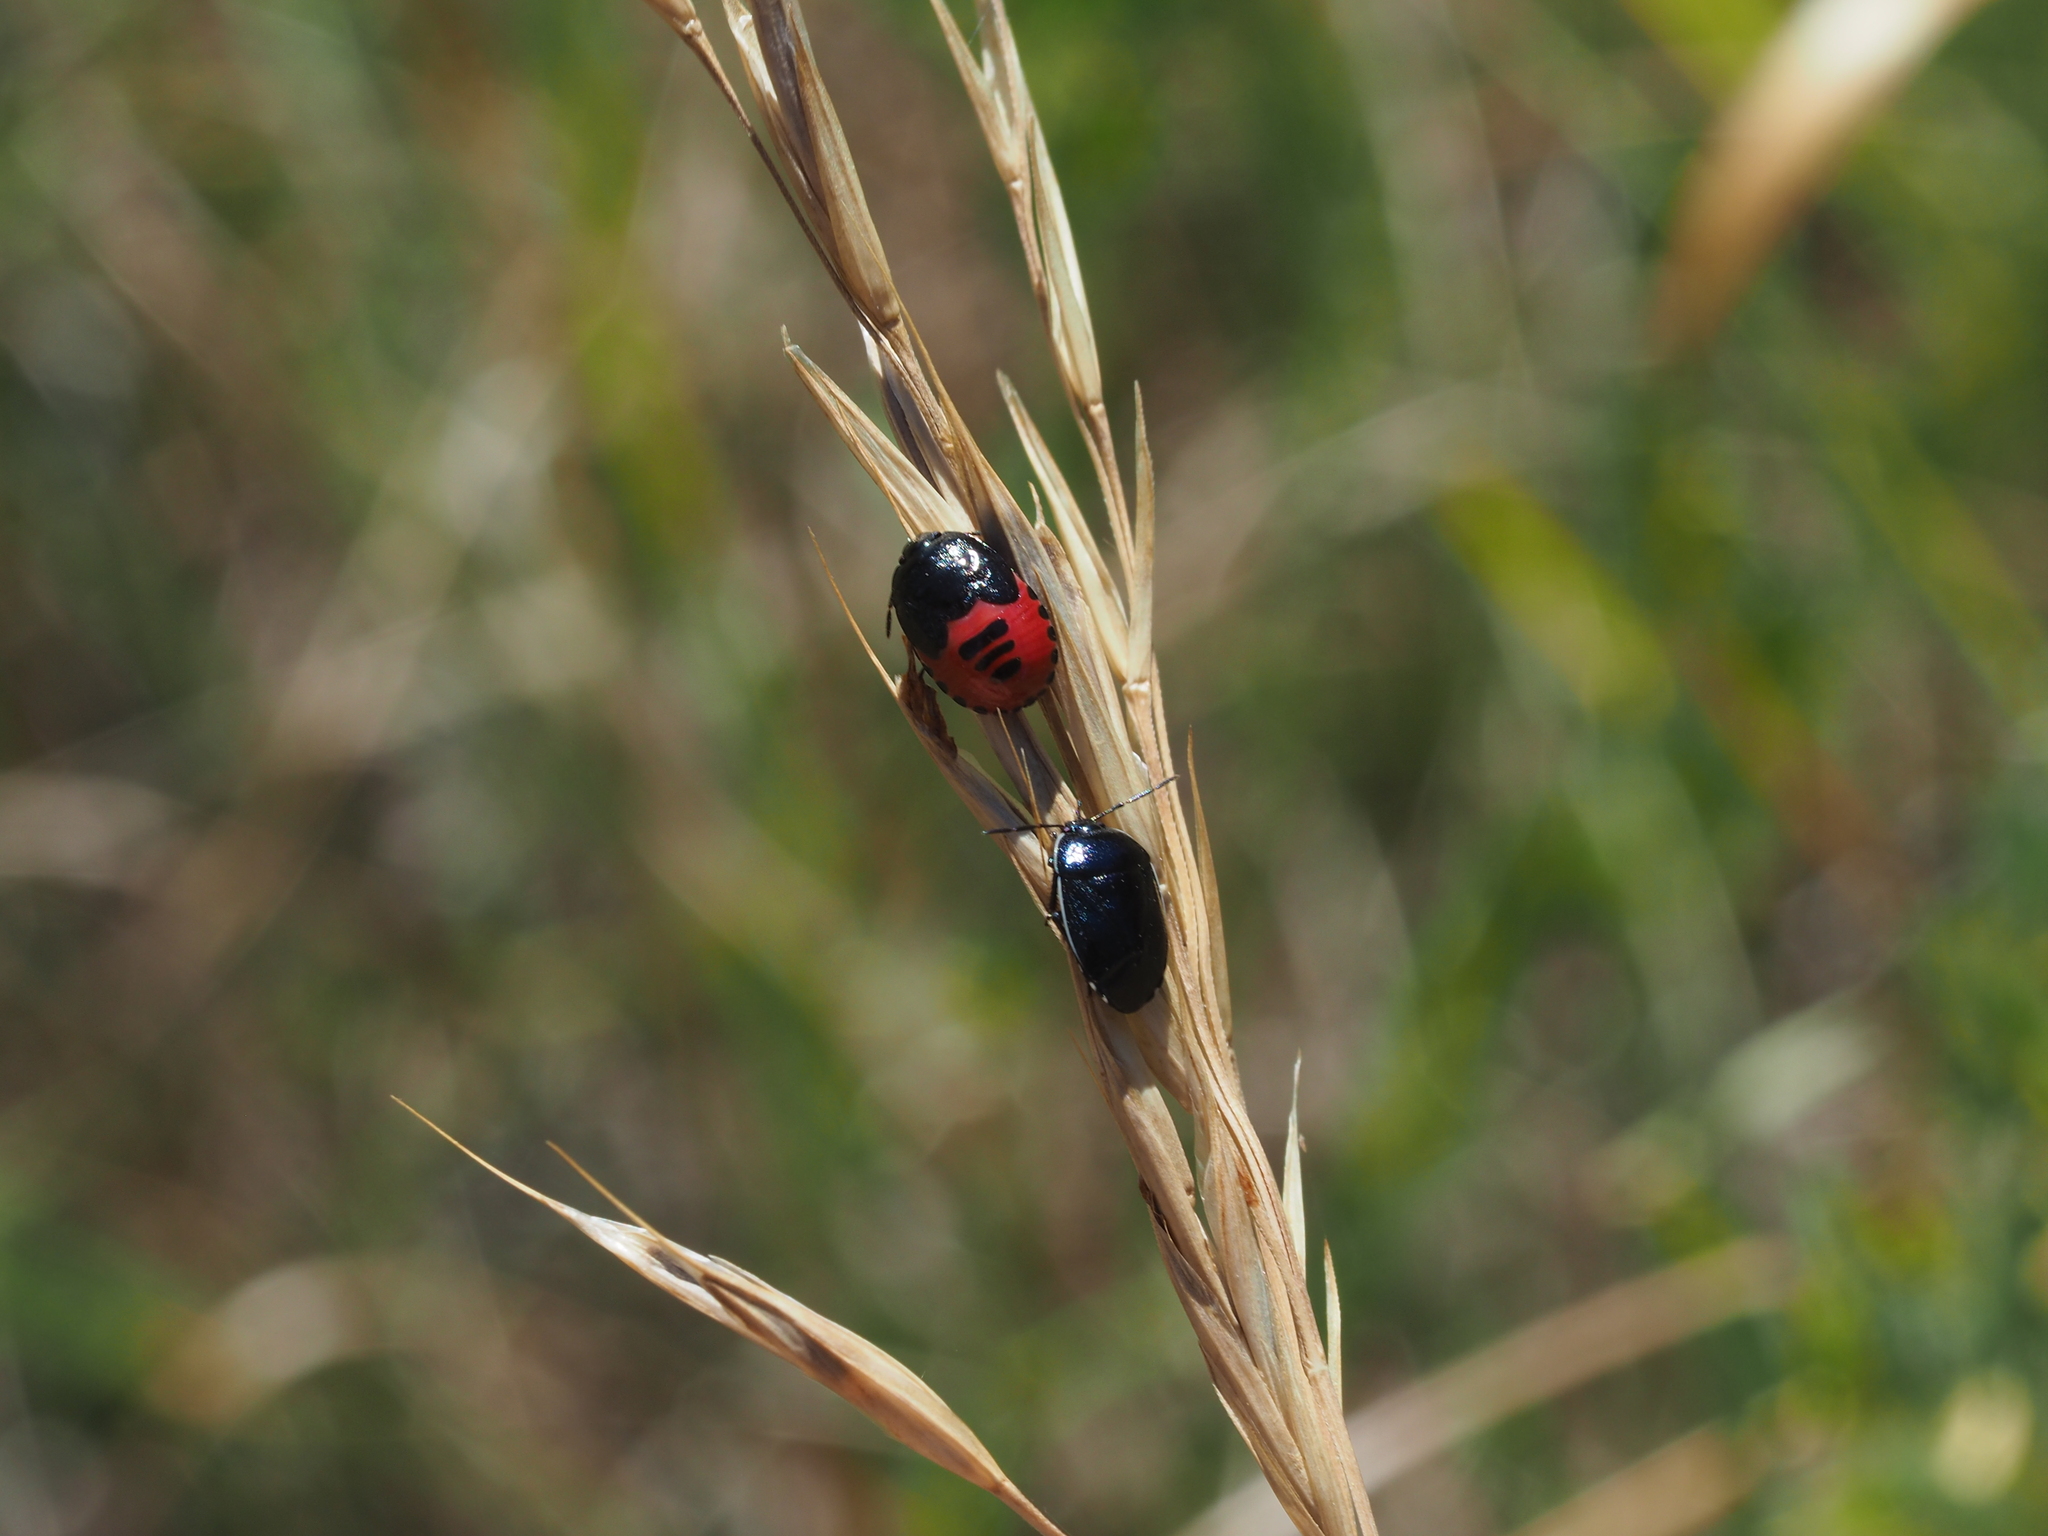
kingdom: Animalia
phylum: Arthropoda
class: Insecta
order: Hemiptera
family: Cydnidae
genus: Canthophorus
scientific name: Canthophorus melanopterus
